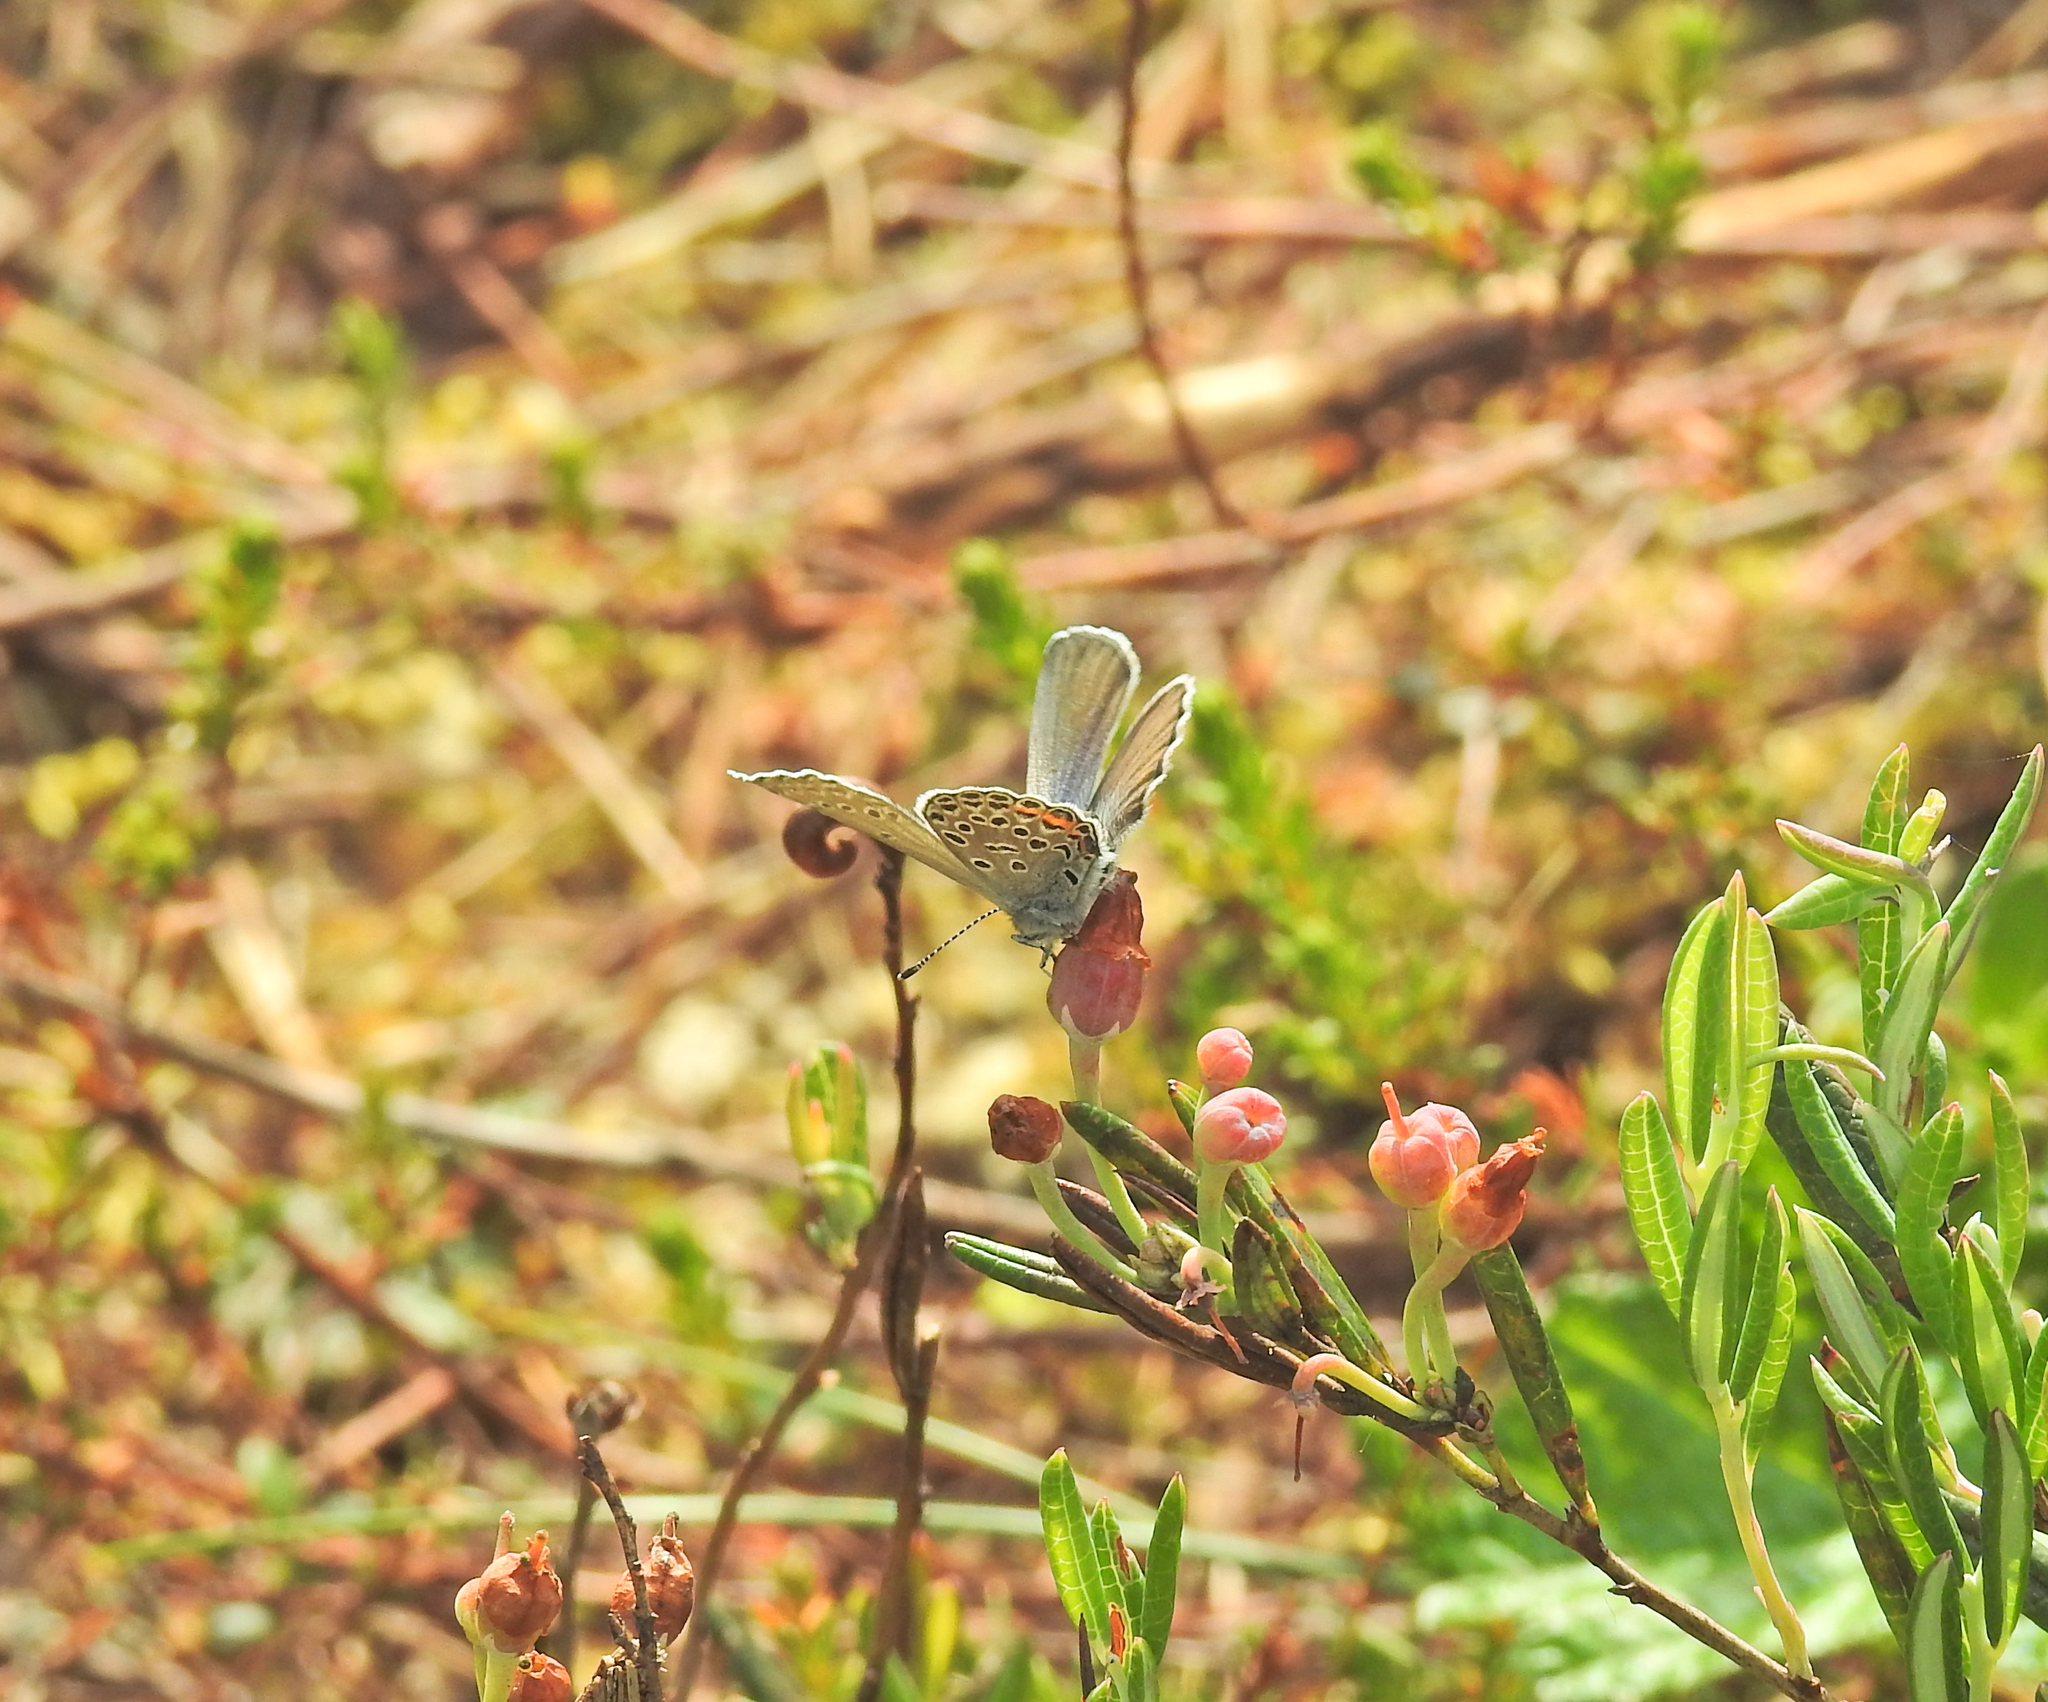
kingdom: Animalia
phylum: Arthropoda
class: Insecta
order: Lepidoptera
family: Lycaenidae
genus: Vacciniina
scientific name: Vacciniina optilete
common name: Cranberry blue
